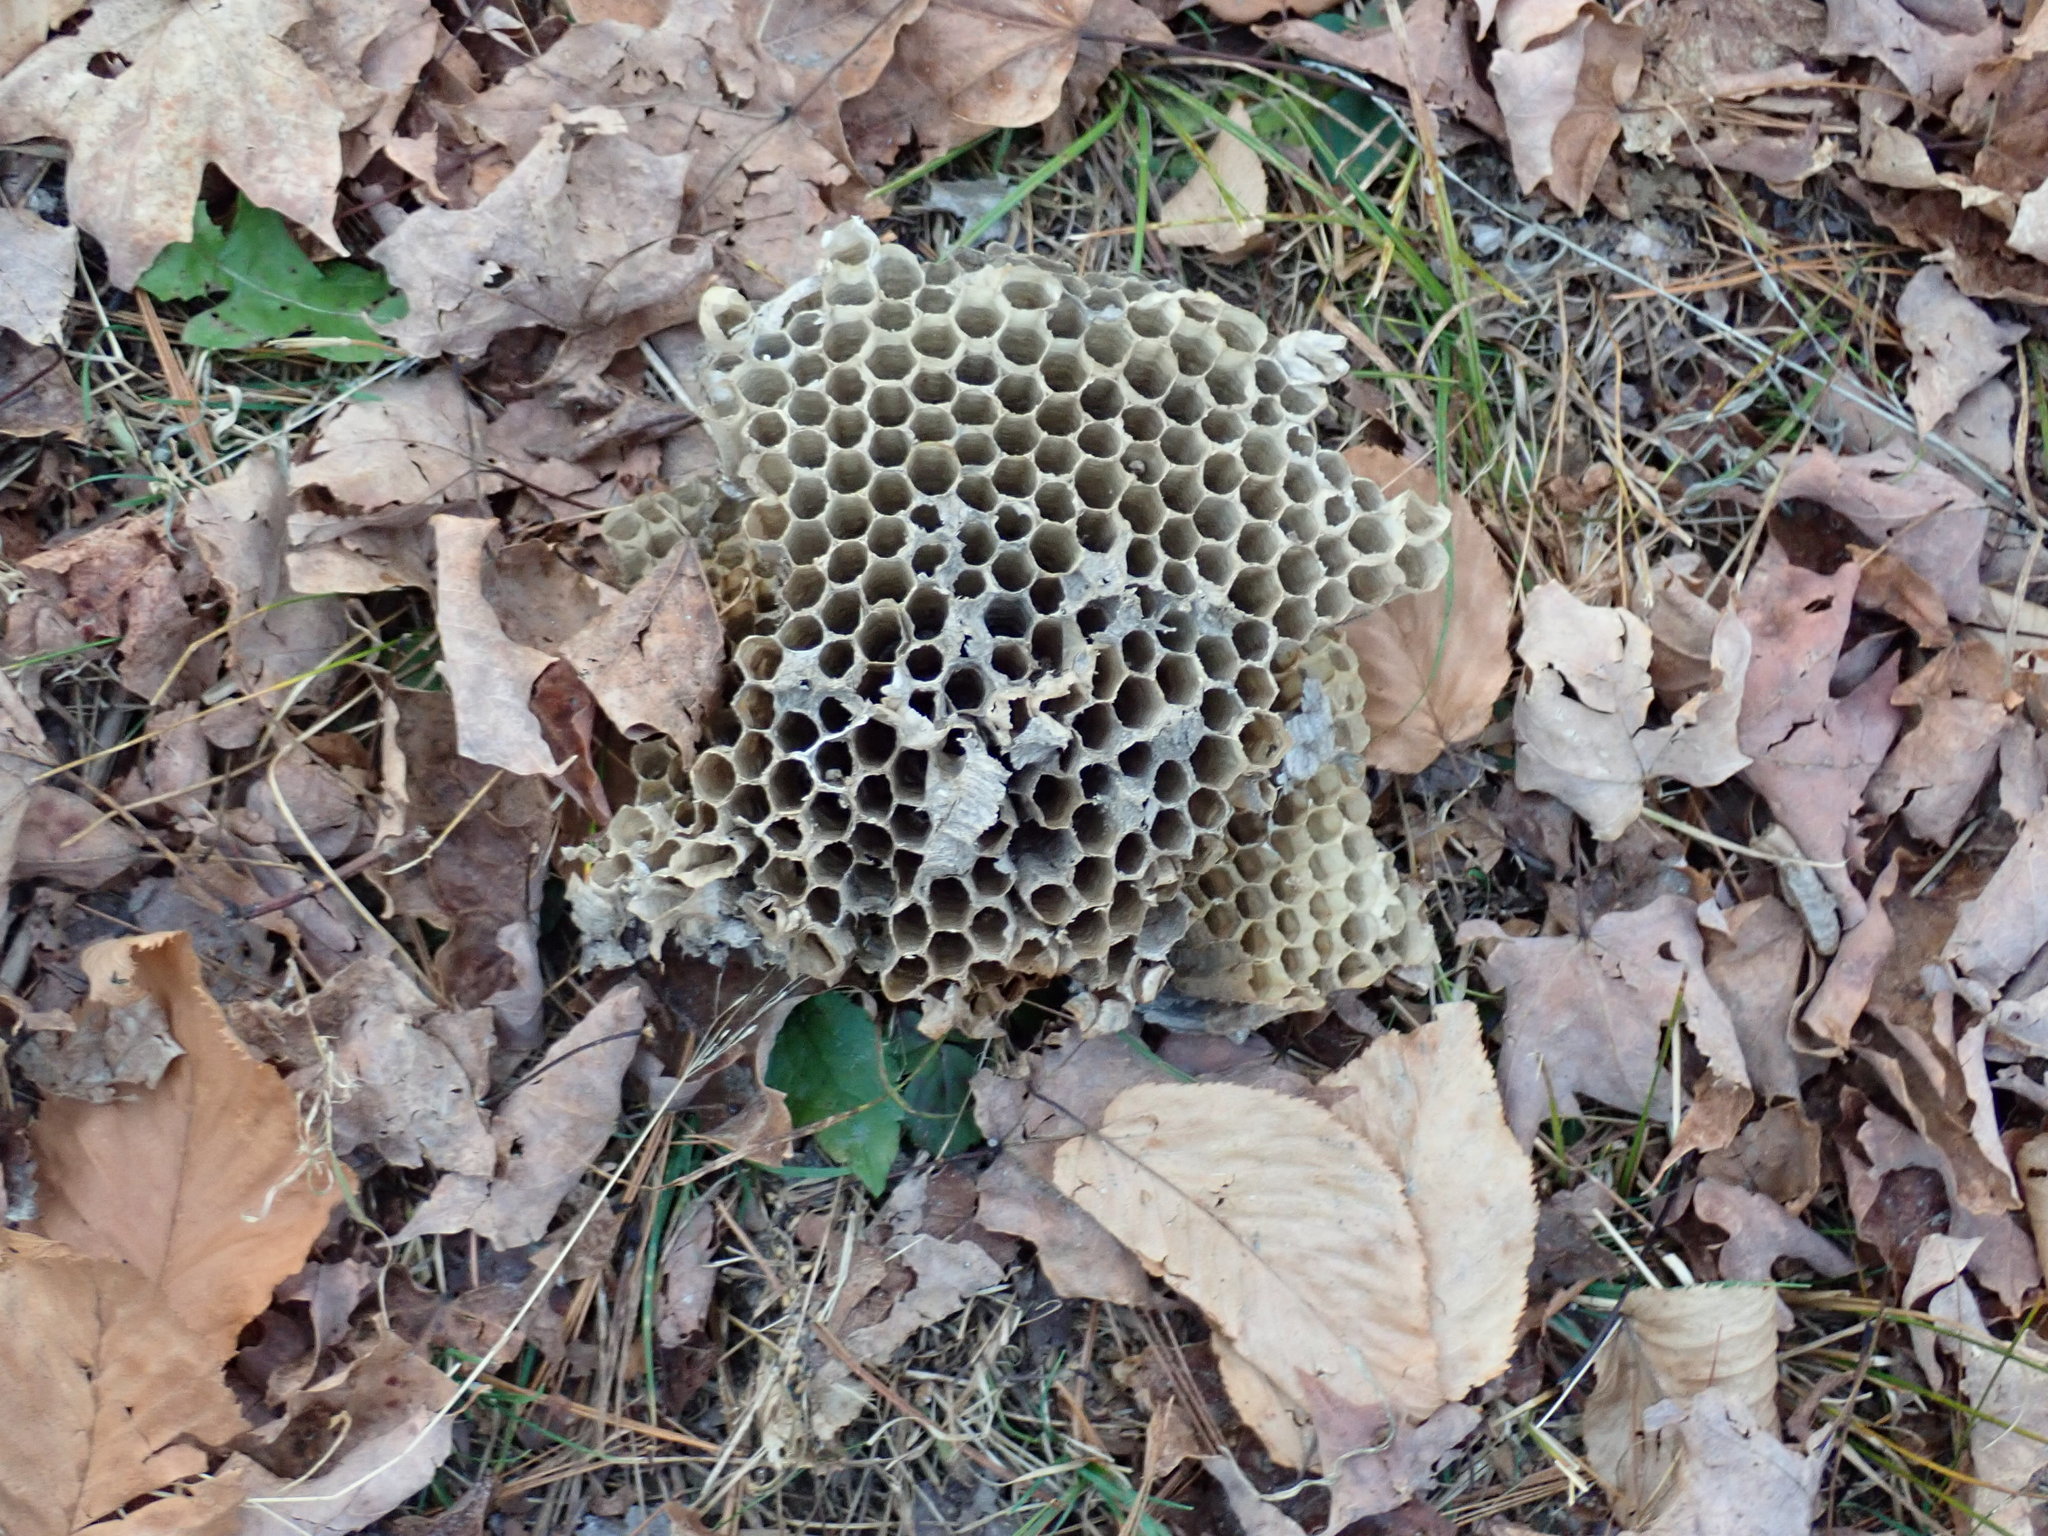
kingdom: Animalia
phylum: Arthropoda
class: Insecta
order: Hymenoptera
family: Vespidae
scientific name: Vespidae
